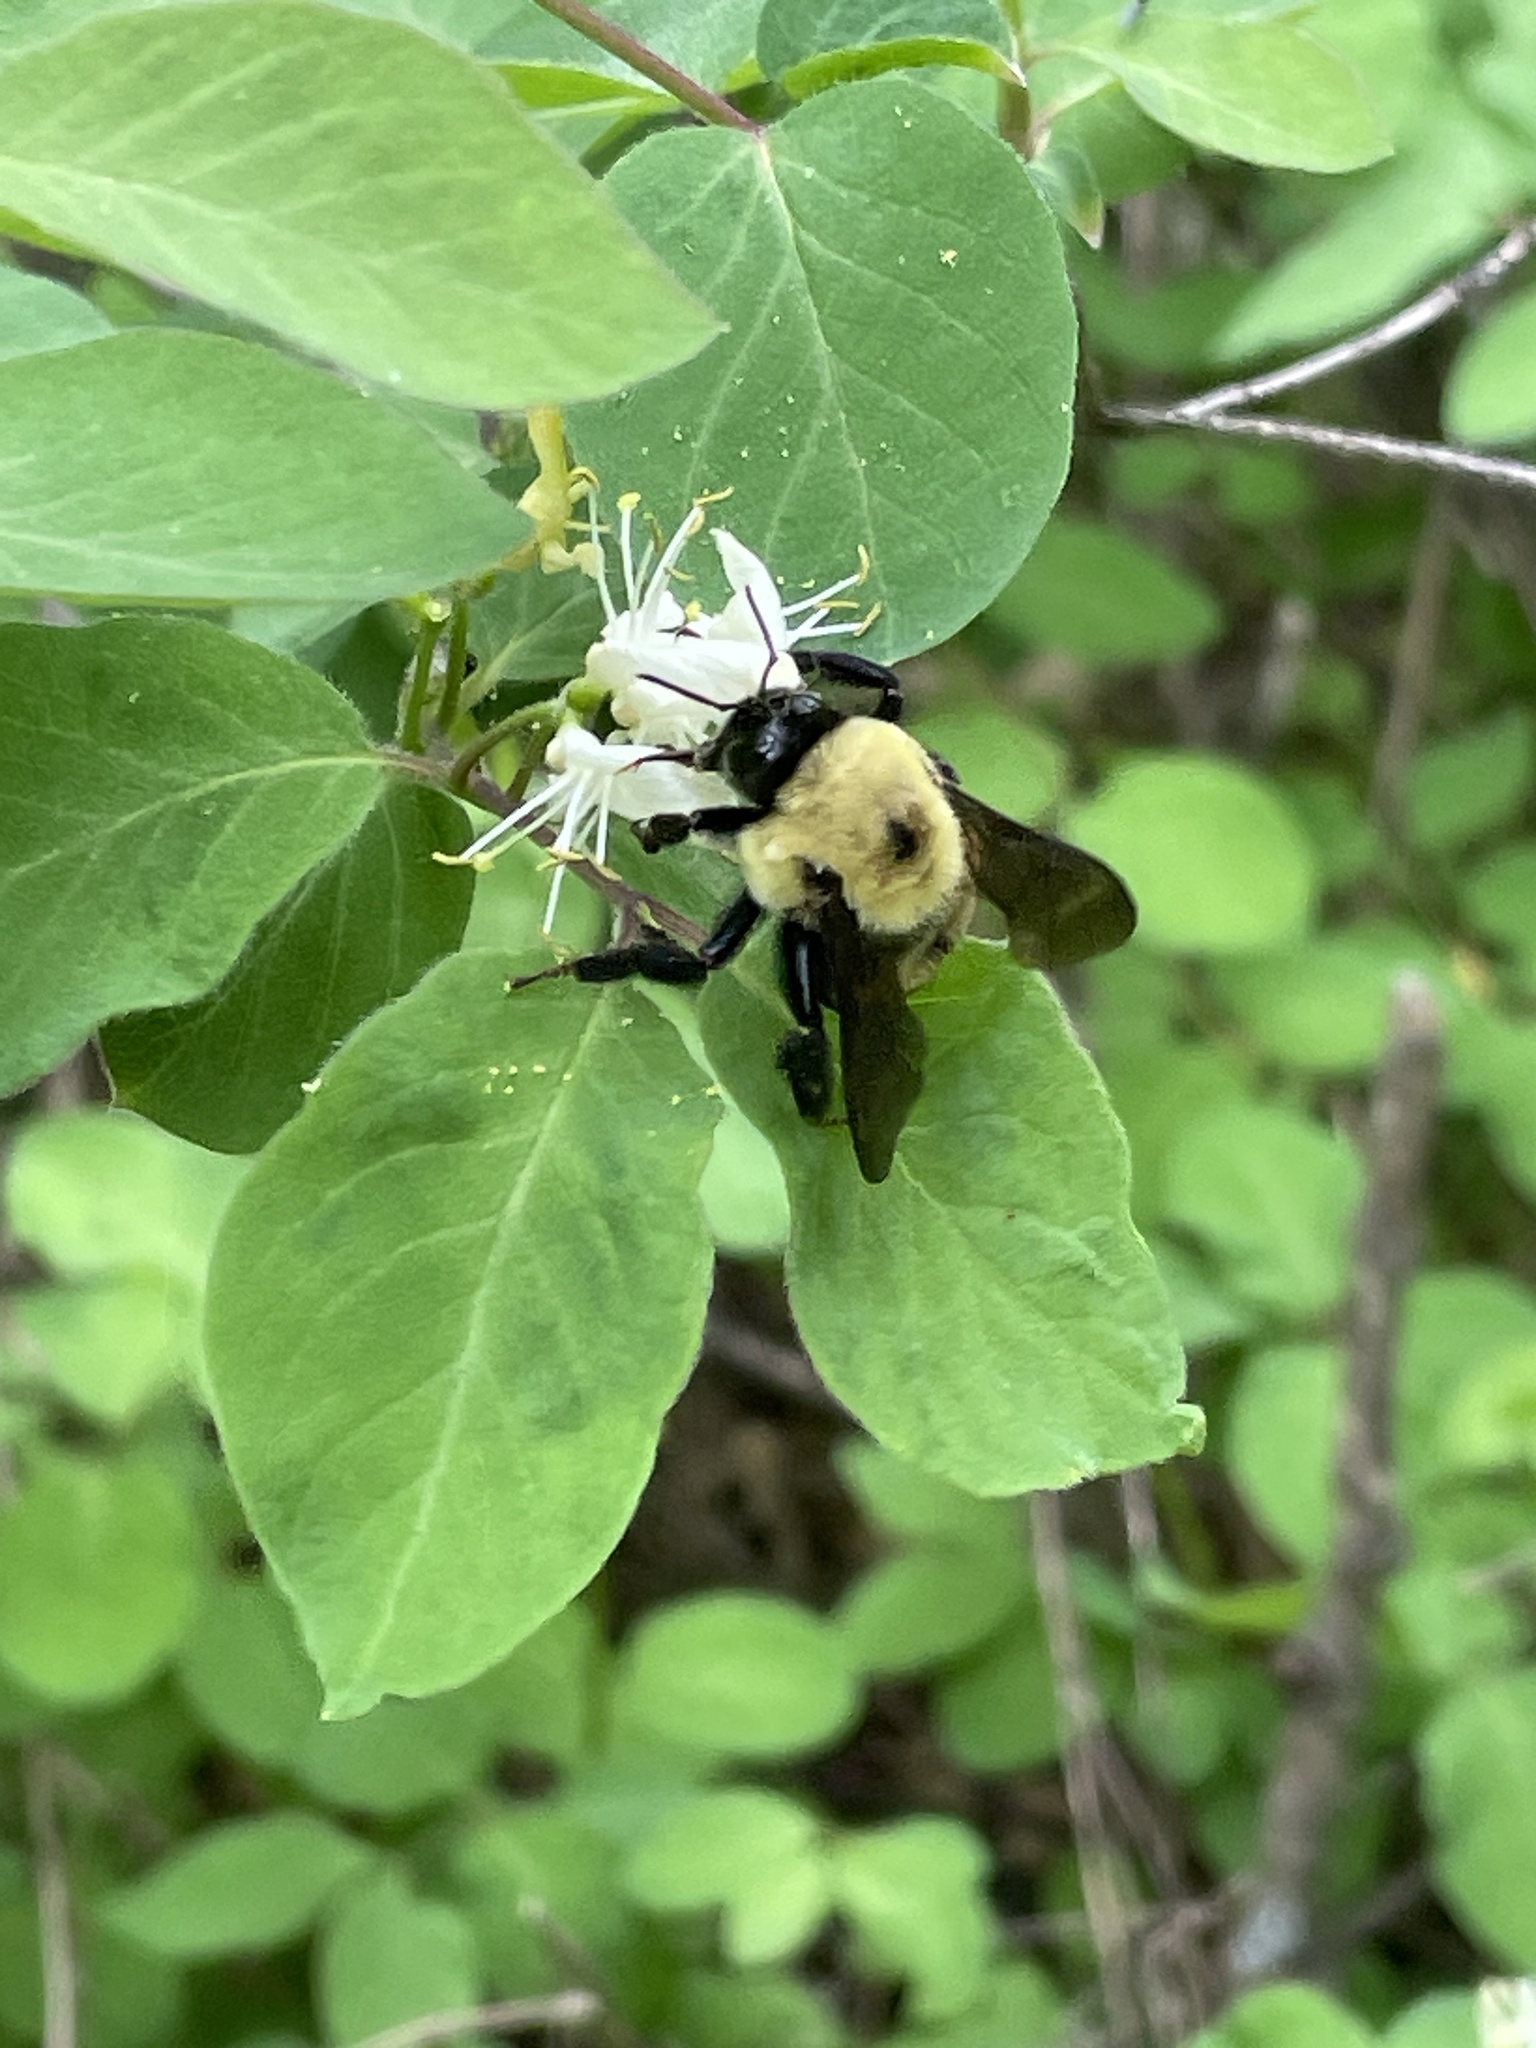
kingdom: Animalia
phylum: Arthropoda
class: Insecta
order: Hymenoptera
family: Apidae
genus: Bombus
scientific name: Bombus griseocollis
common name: Brown-belted bumble bee
